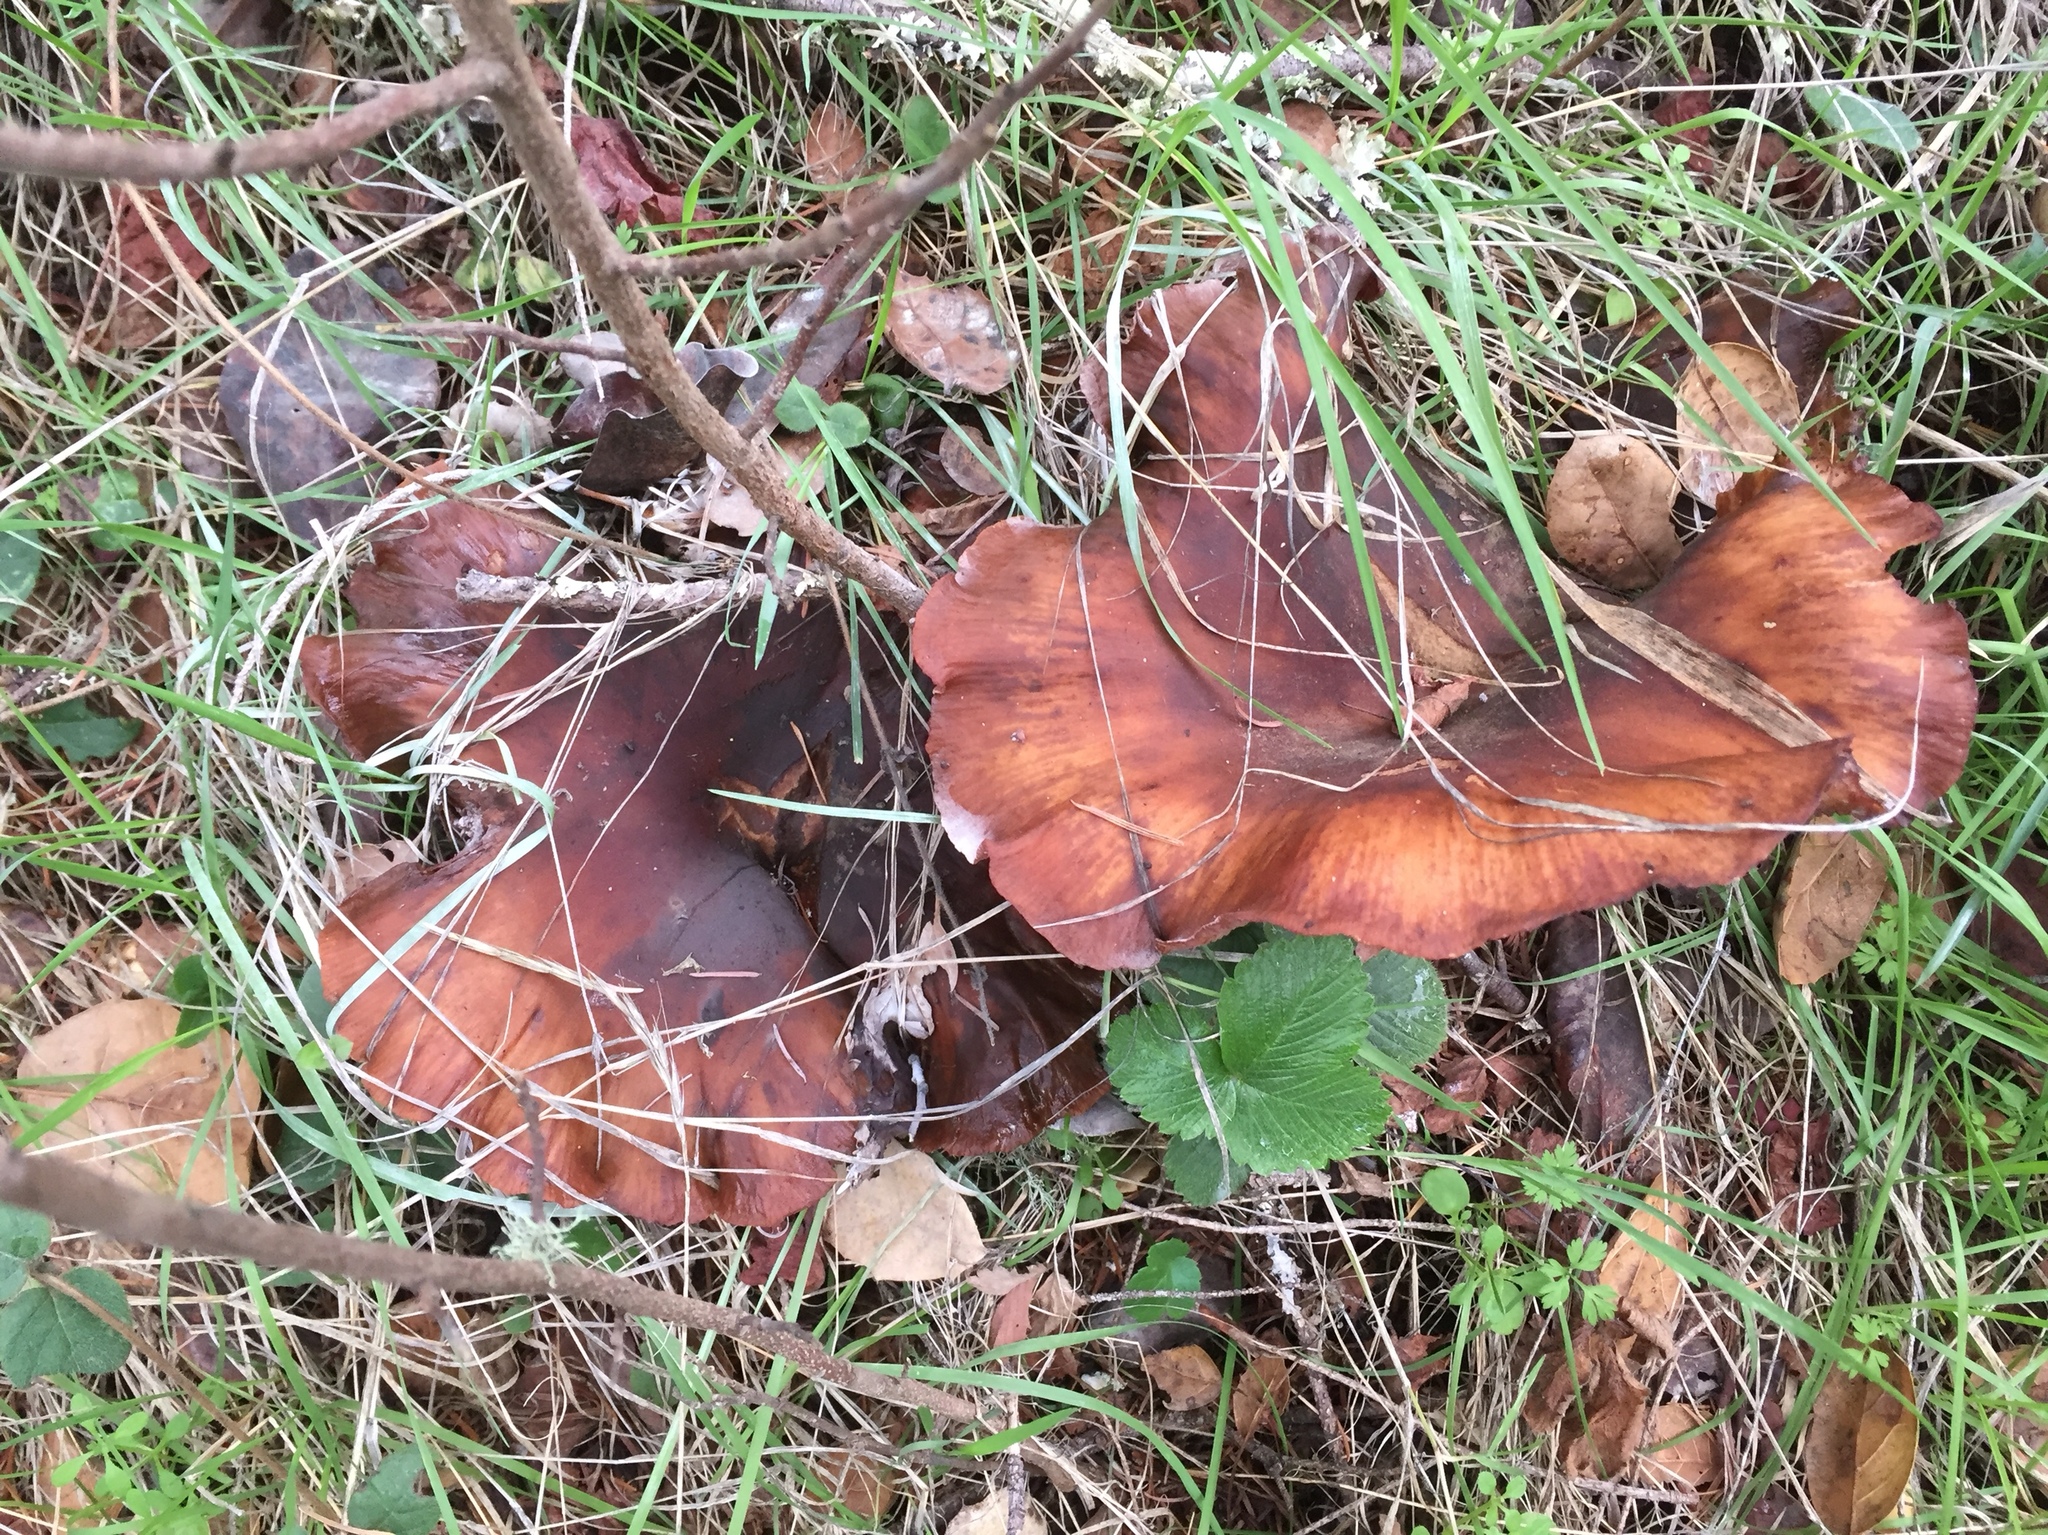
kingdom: Fungi
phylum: Basidiomycota
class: Agaricomycetes
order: Agaricales
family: Physalacriaceae
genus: Armillaria
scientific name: Armillaria mellea
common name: Honey fungus
